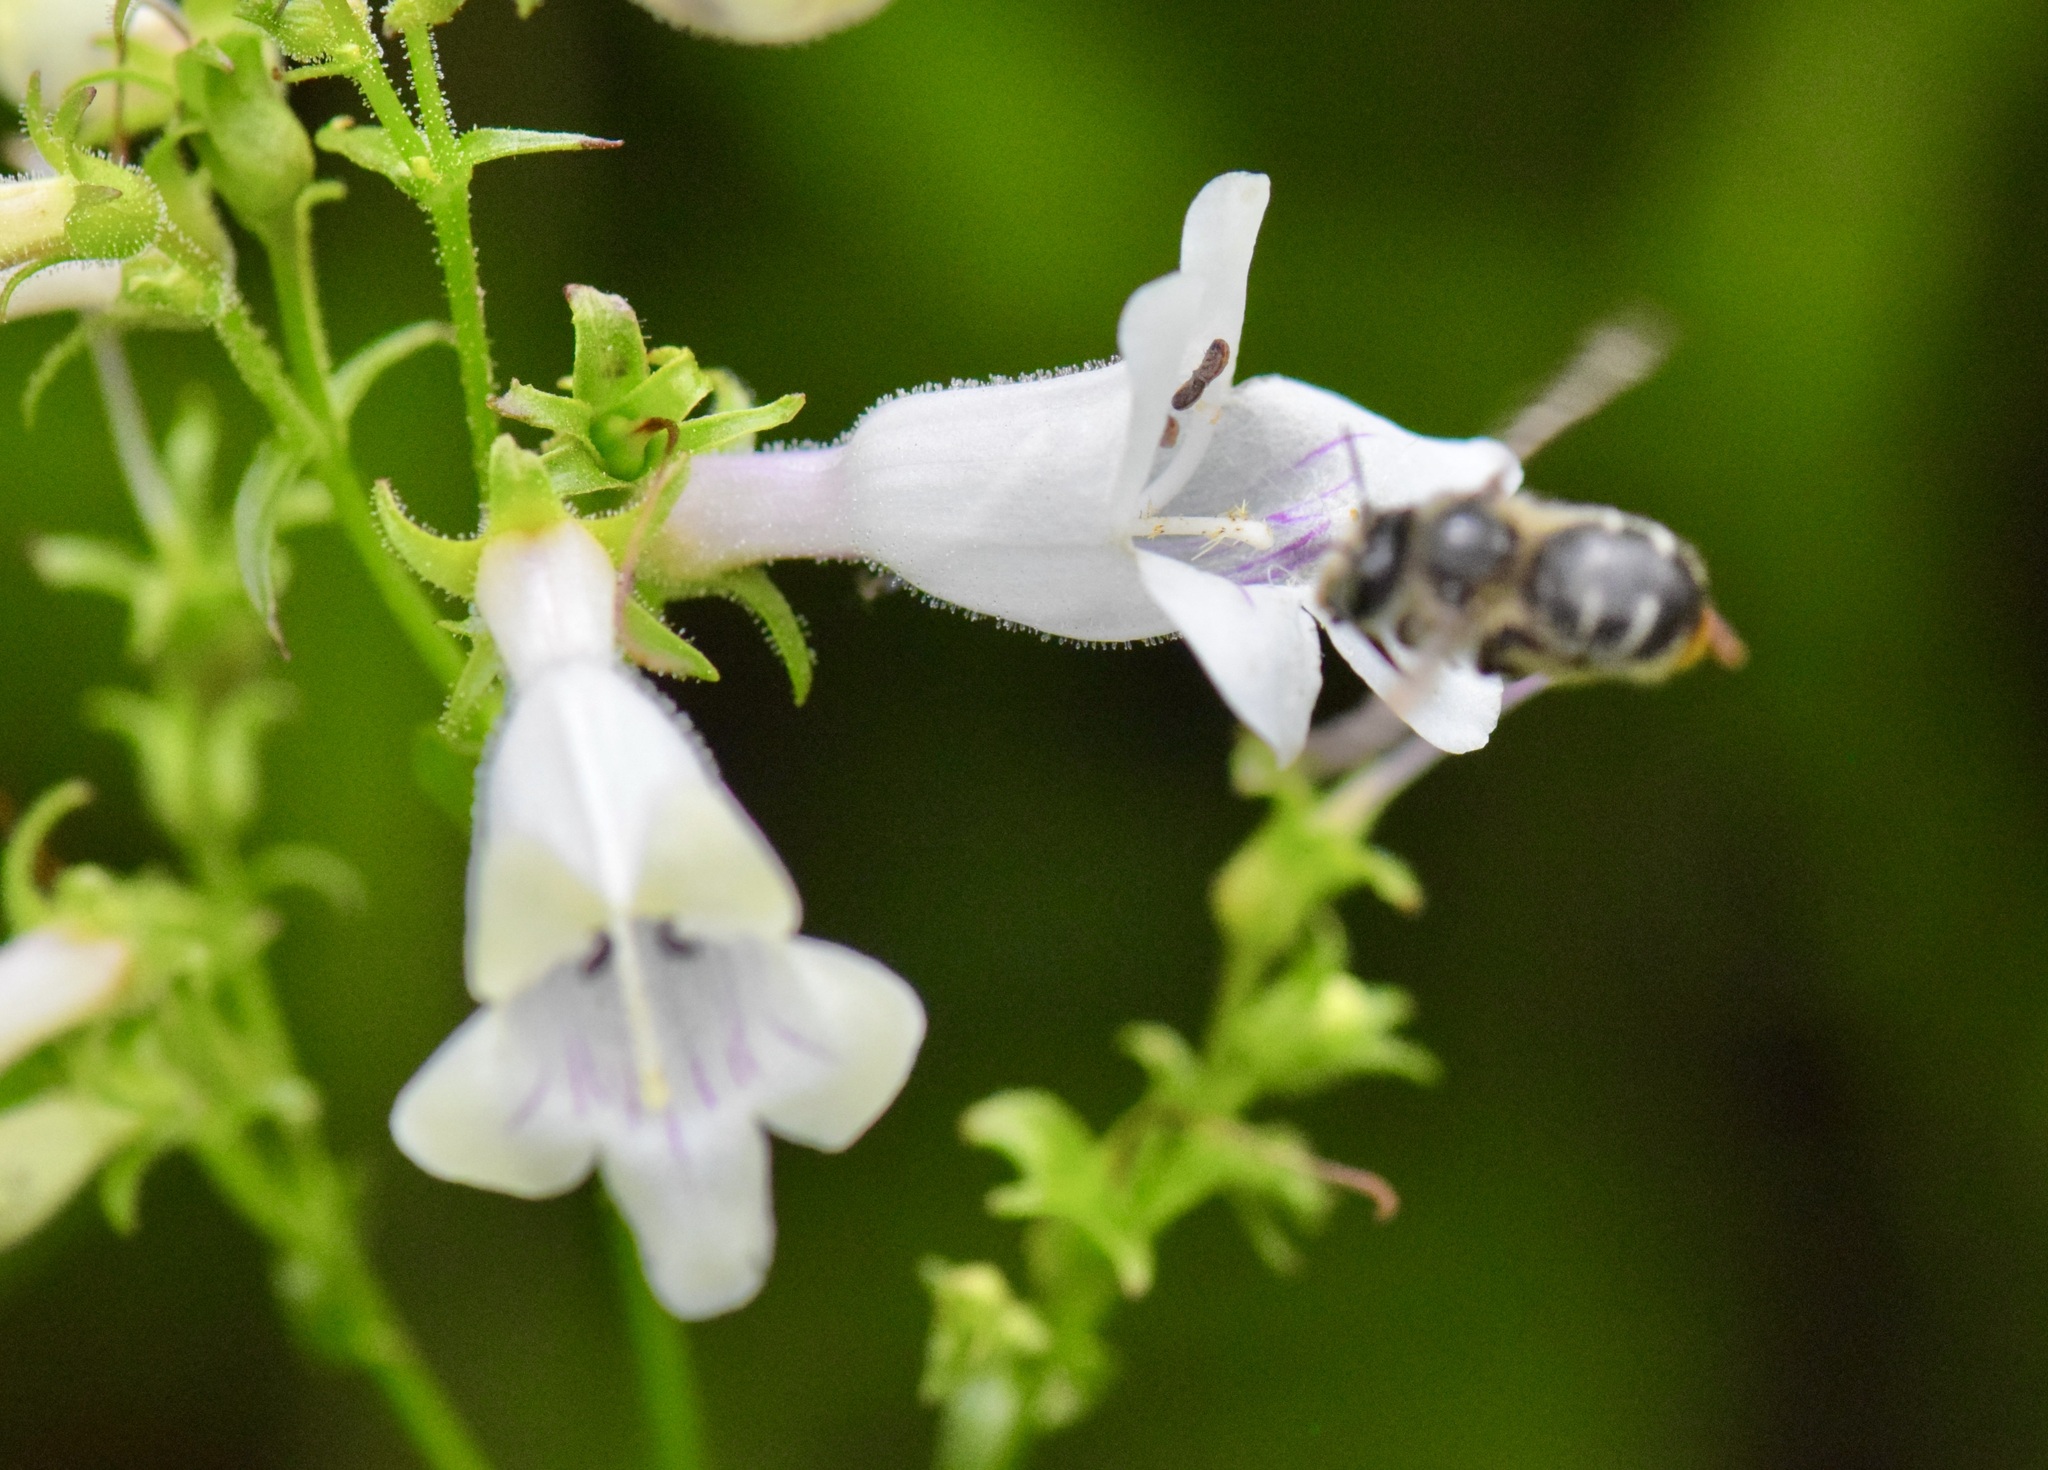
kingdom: Animalia
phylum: Arthropoda
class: Insecta
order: Hymenoptera
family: Apidae
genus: Anthophora
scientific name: Anthophora terminalis
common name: Orange-tipped wood-digger bee
